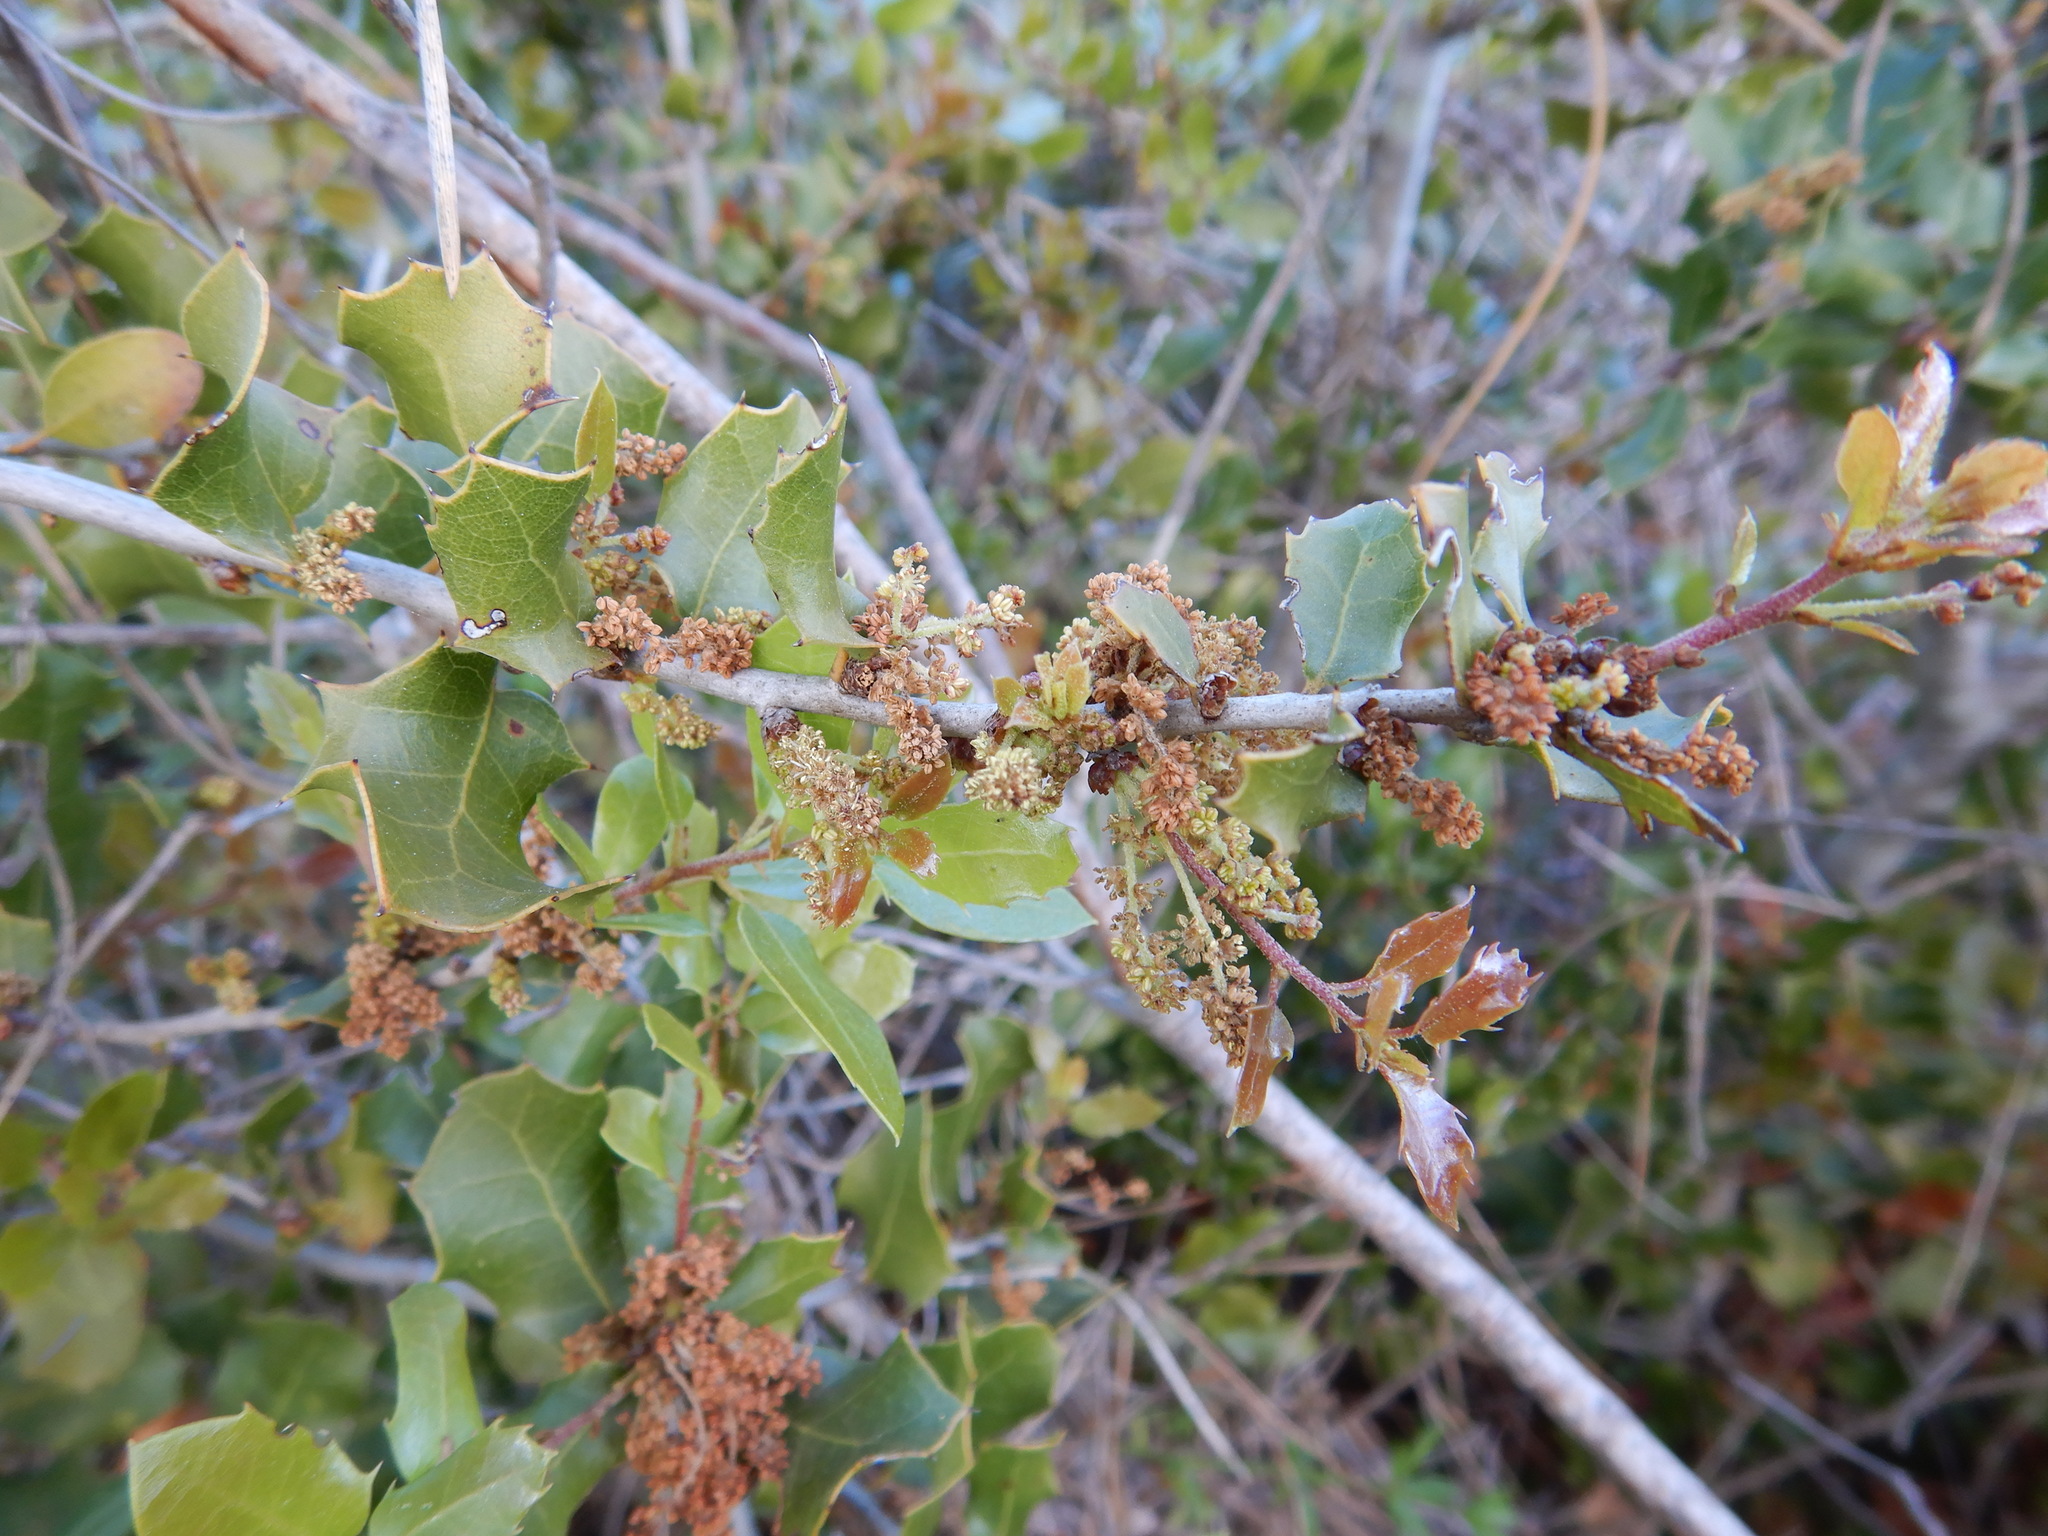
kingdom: Plantae
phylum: Tracheophyta
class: Magnoliopsida
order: Fagales
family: Fagaceae
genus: Quercus
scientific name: Quercus coccifera
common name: Kermes oak
